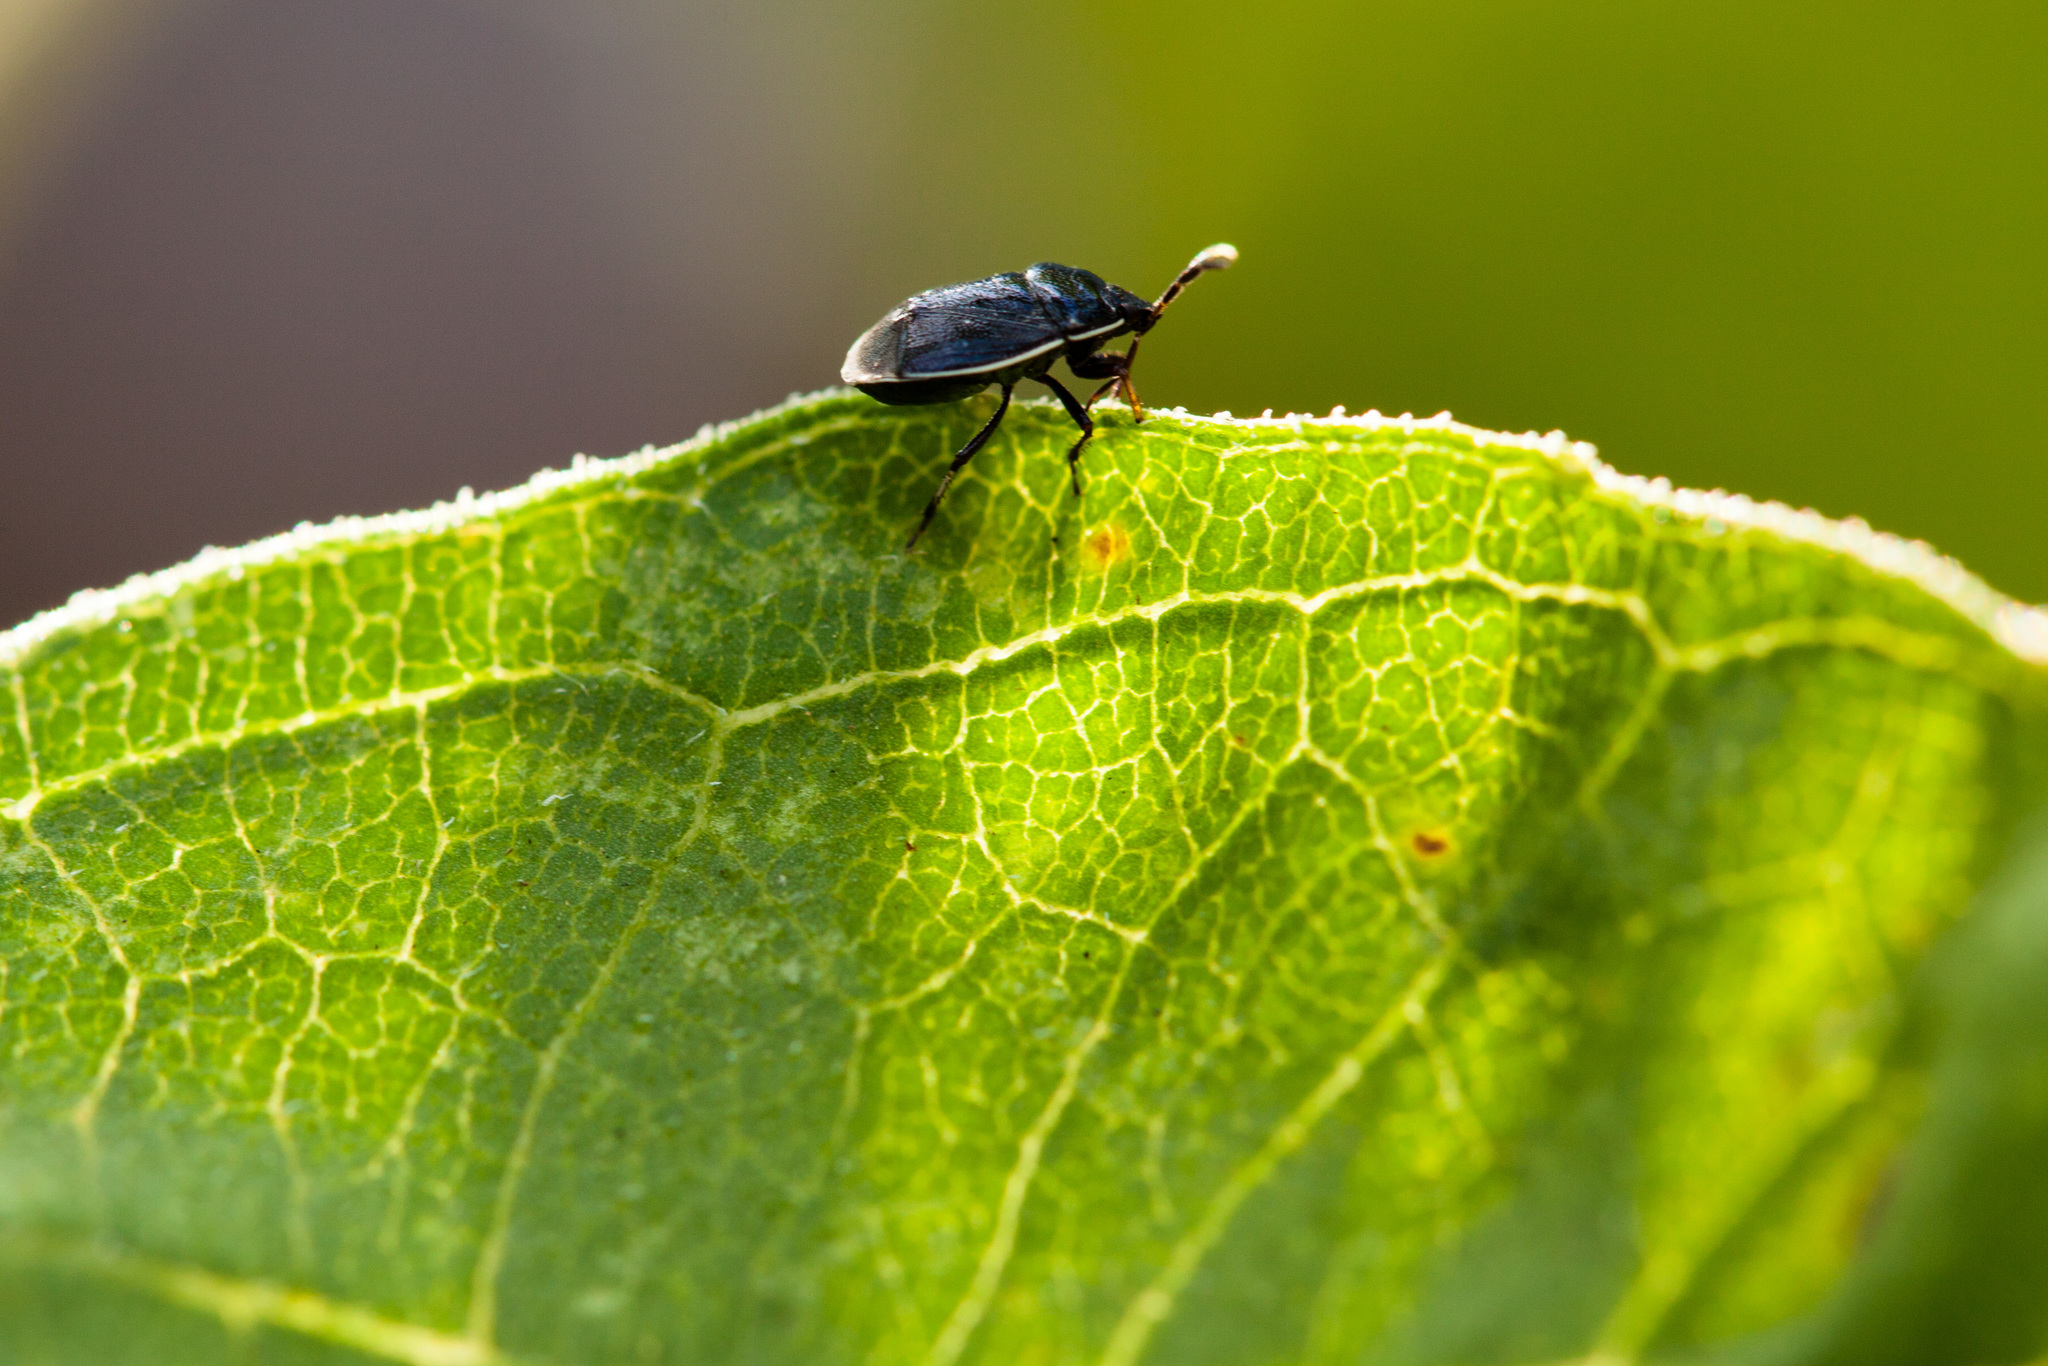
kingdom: Animalia
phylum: Arthropoda
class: Insecta
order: Hemiptera
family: Cydnidae
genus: Sehirus
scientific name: Sehirus cinctus
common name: White-margined burrower bug
